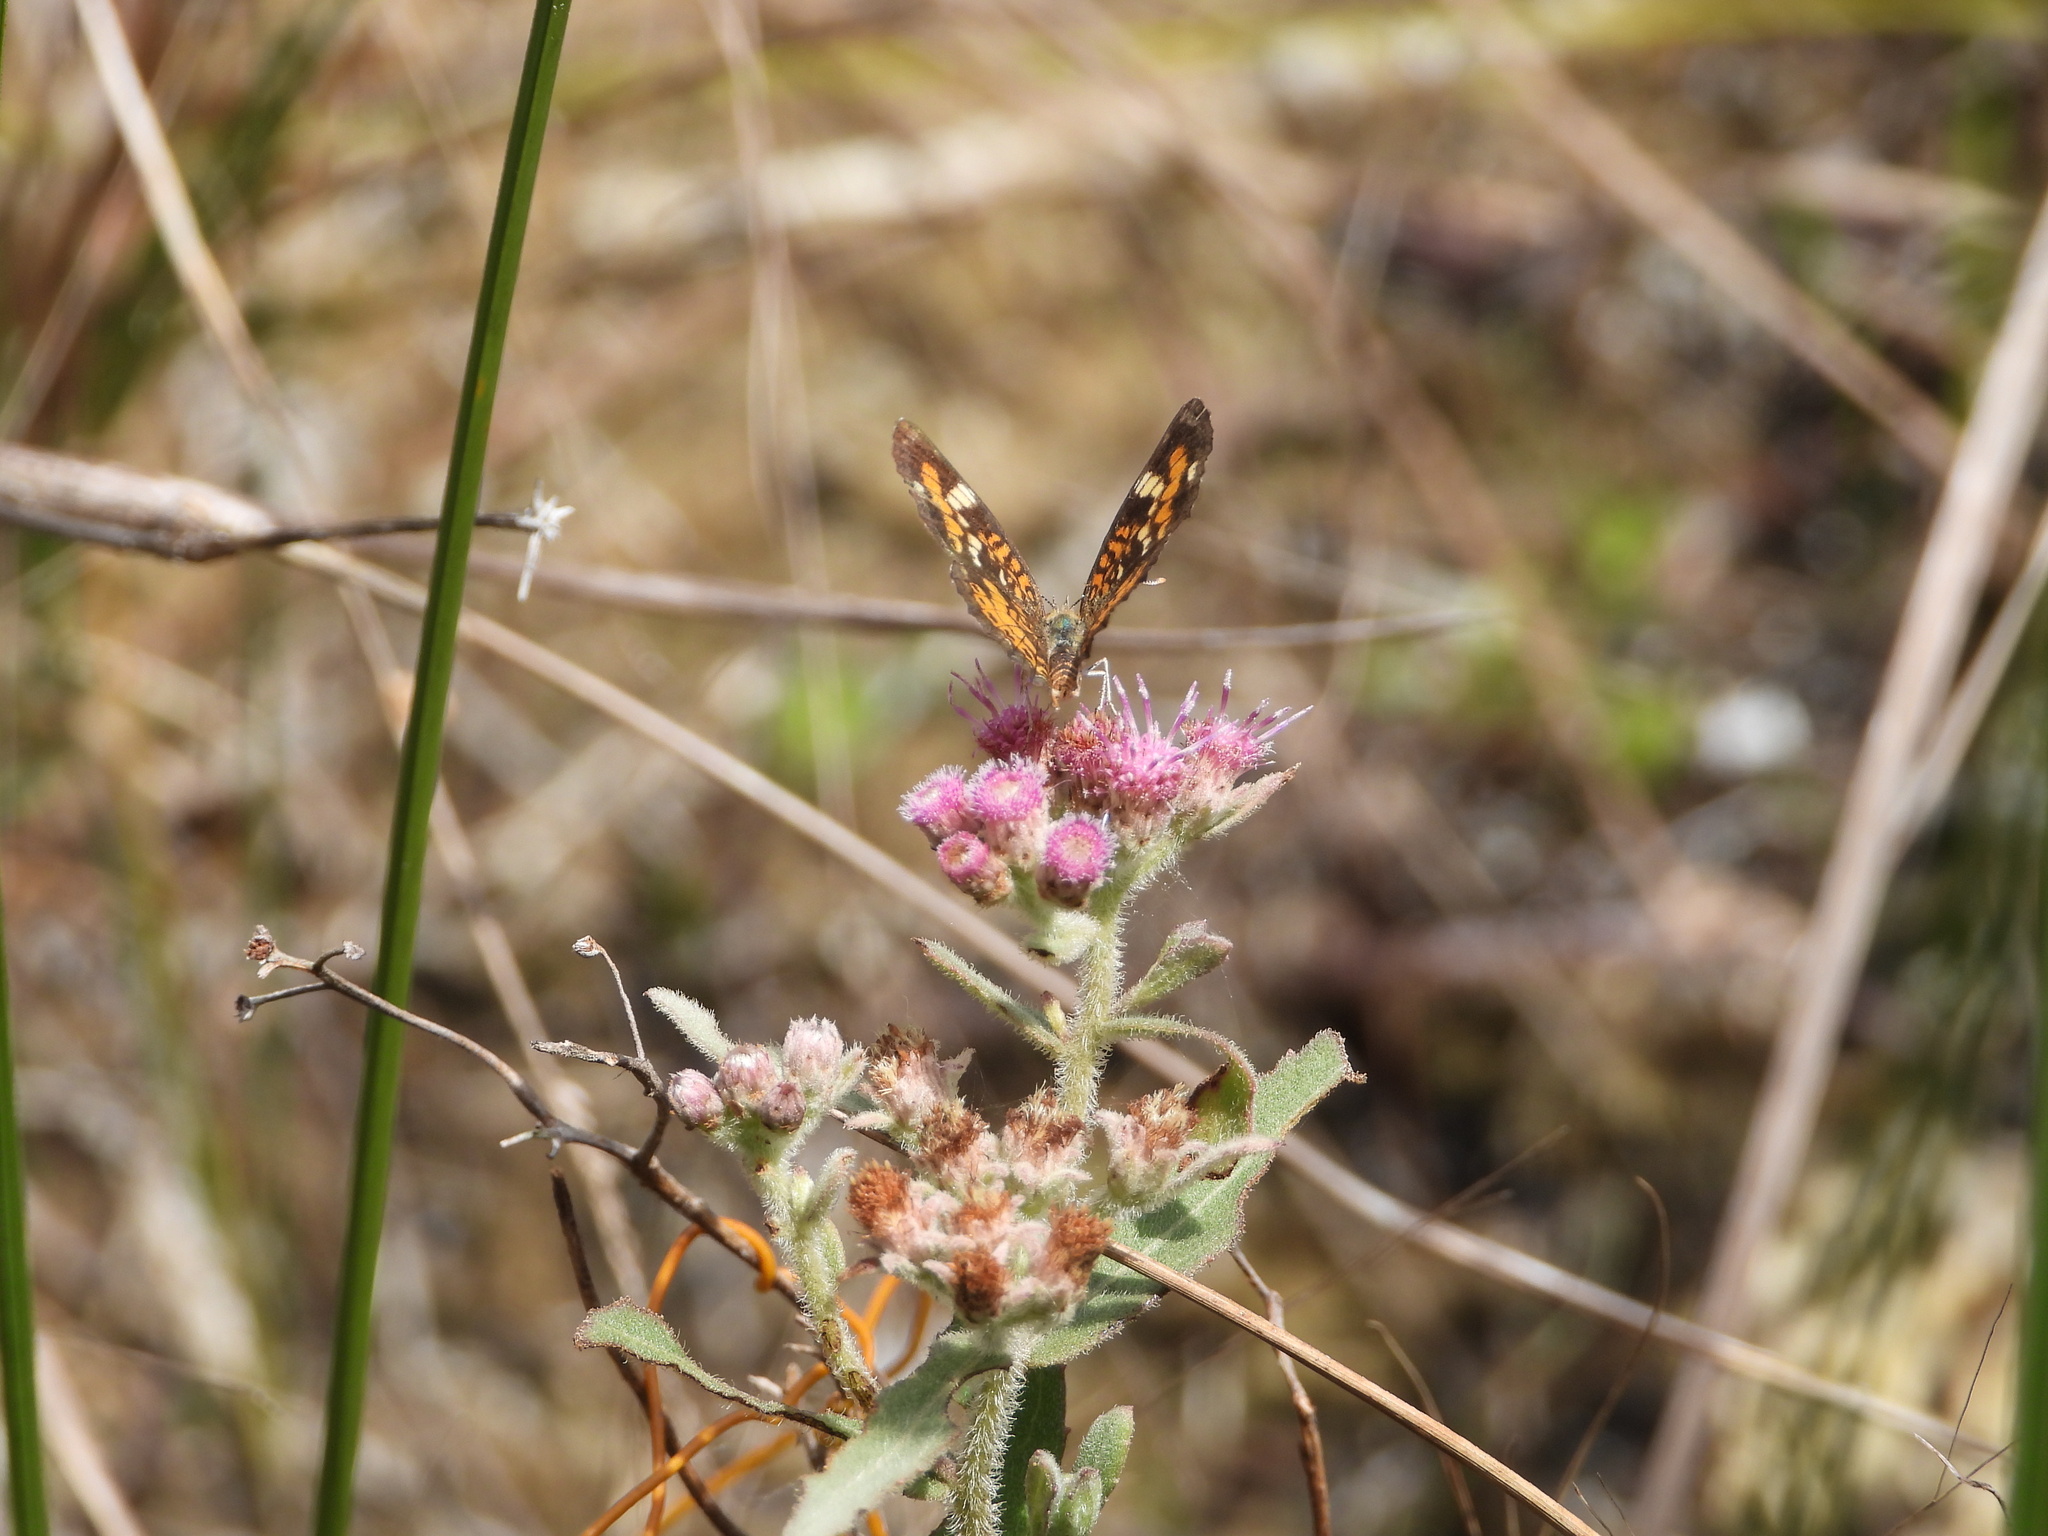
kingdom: Plantae
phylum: Tracheophyta
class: Magnoliopsida
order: Asterales
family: Asteraceae
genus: Pluchea
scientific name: Pluchea baccharis
